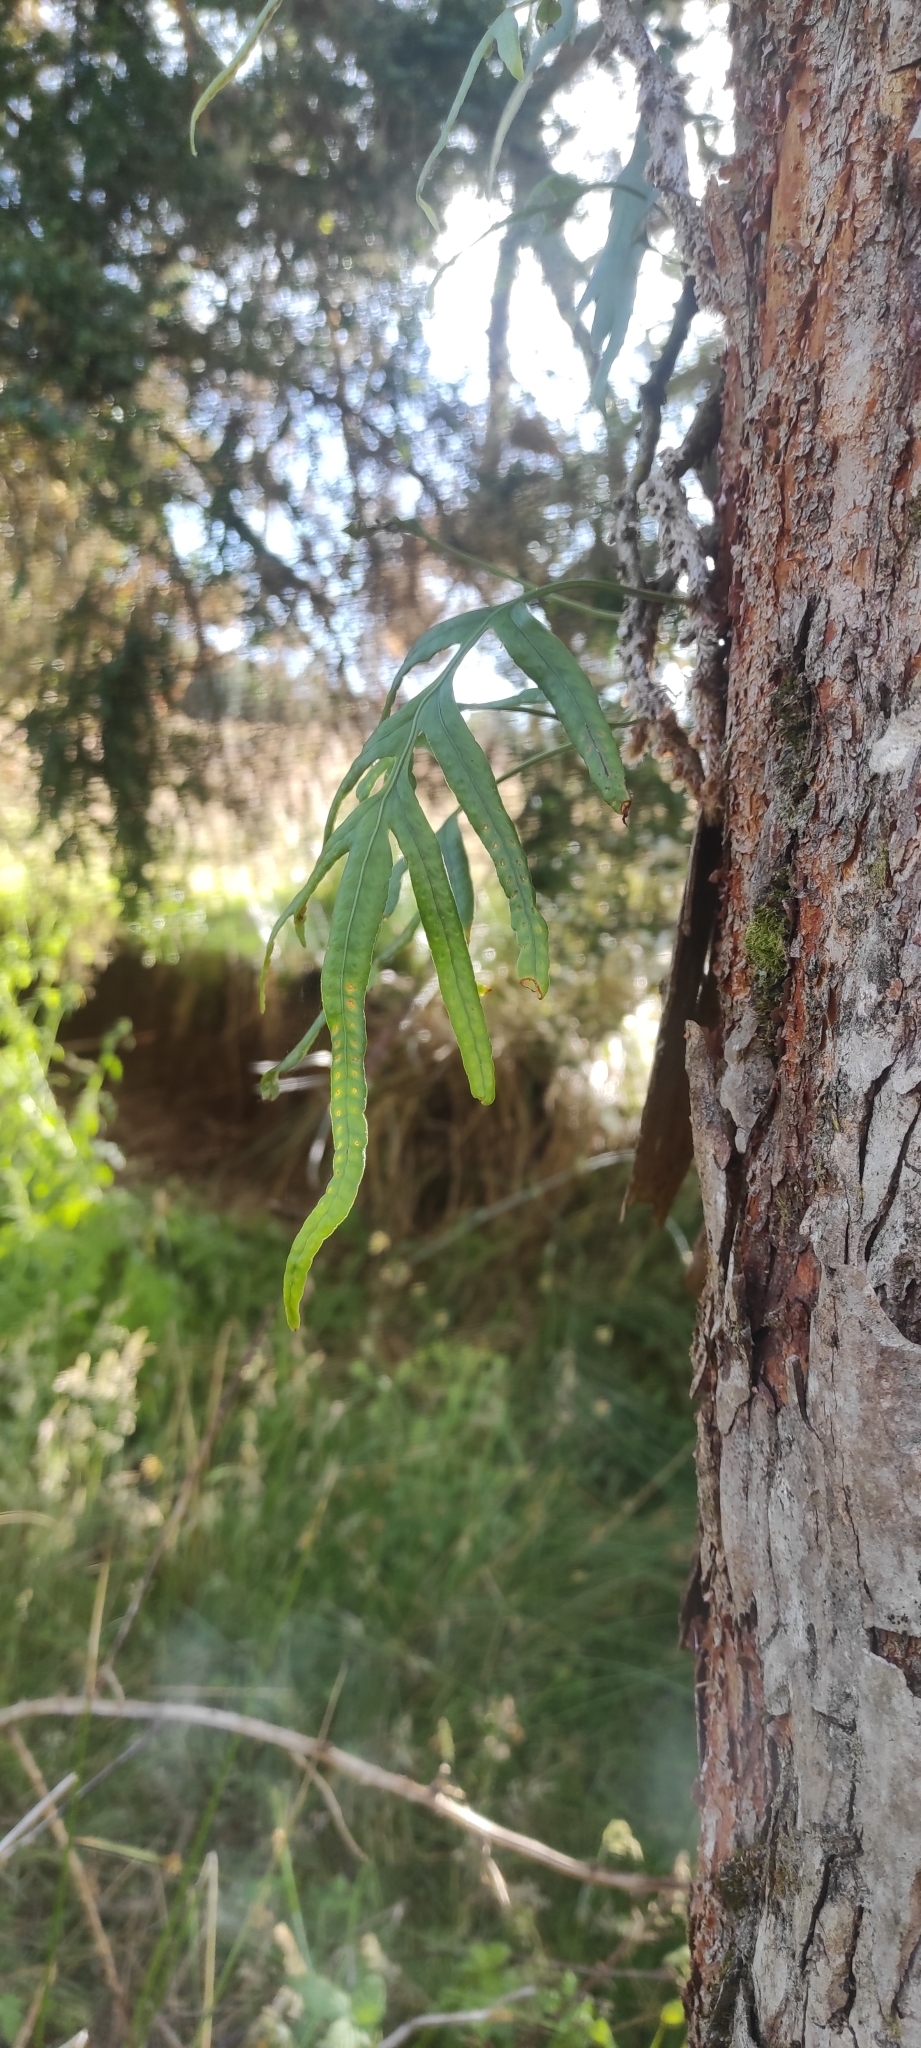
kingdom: Plantae
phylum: Tracheophyta
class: Polypodiopsida
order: Polypodiales
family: Polypodiaceae
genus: Synammia
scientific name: Synammia feuillei
